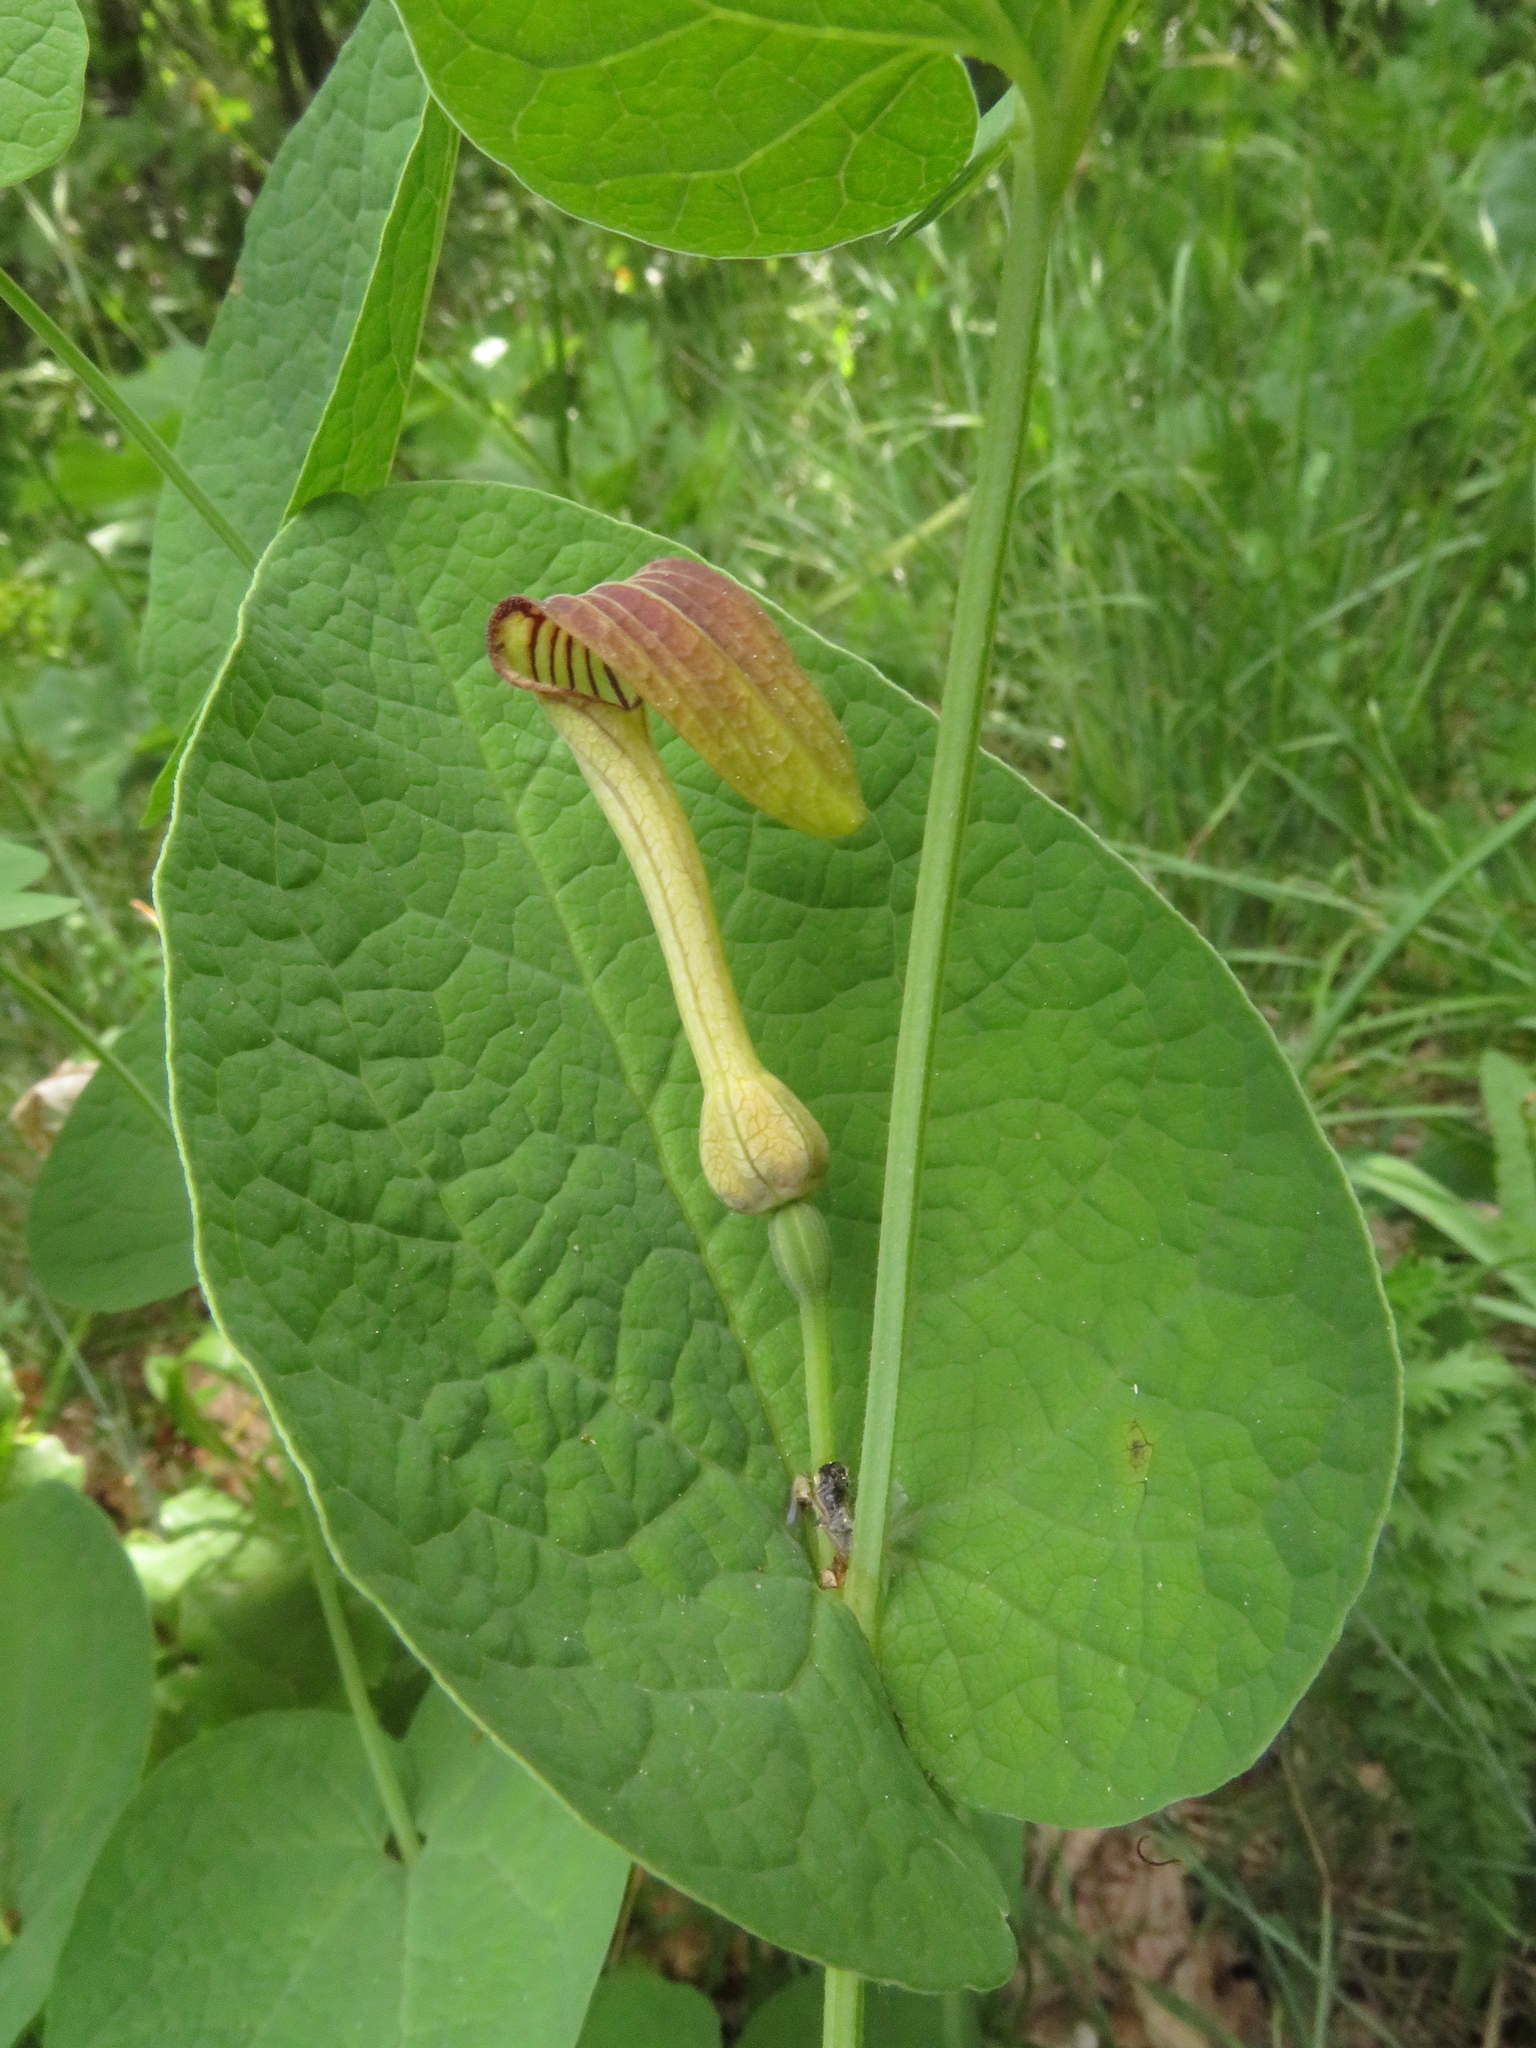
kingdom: Plantae
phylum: Tracheophyta
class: Magnoliopsida
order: Piperales
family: Aristolochiaceae
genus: Aristolochia
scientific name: Aristolochia pallida
